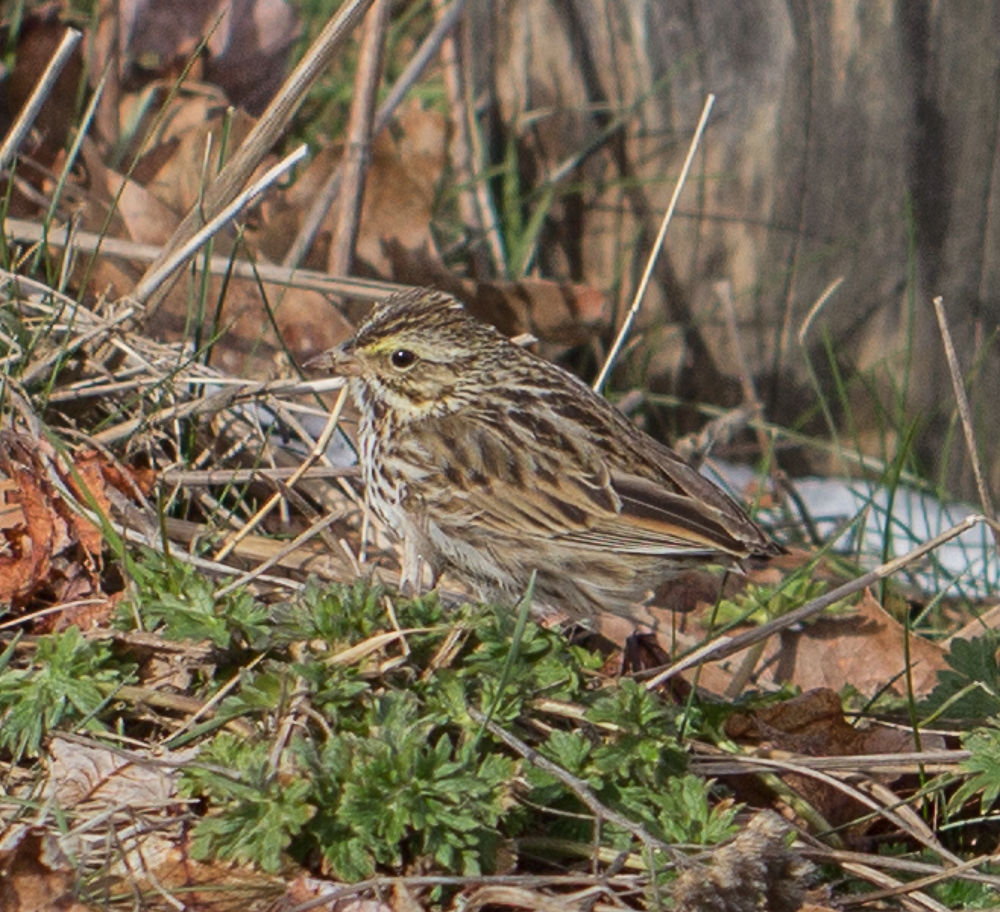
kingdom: Animalia
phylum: Chordata
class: Aves
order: Passeriformes
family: Passerellidae
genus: Passerculus
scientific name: Passerculus sandwichensis
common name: Savannah sparrow
